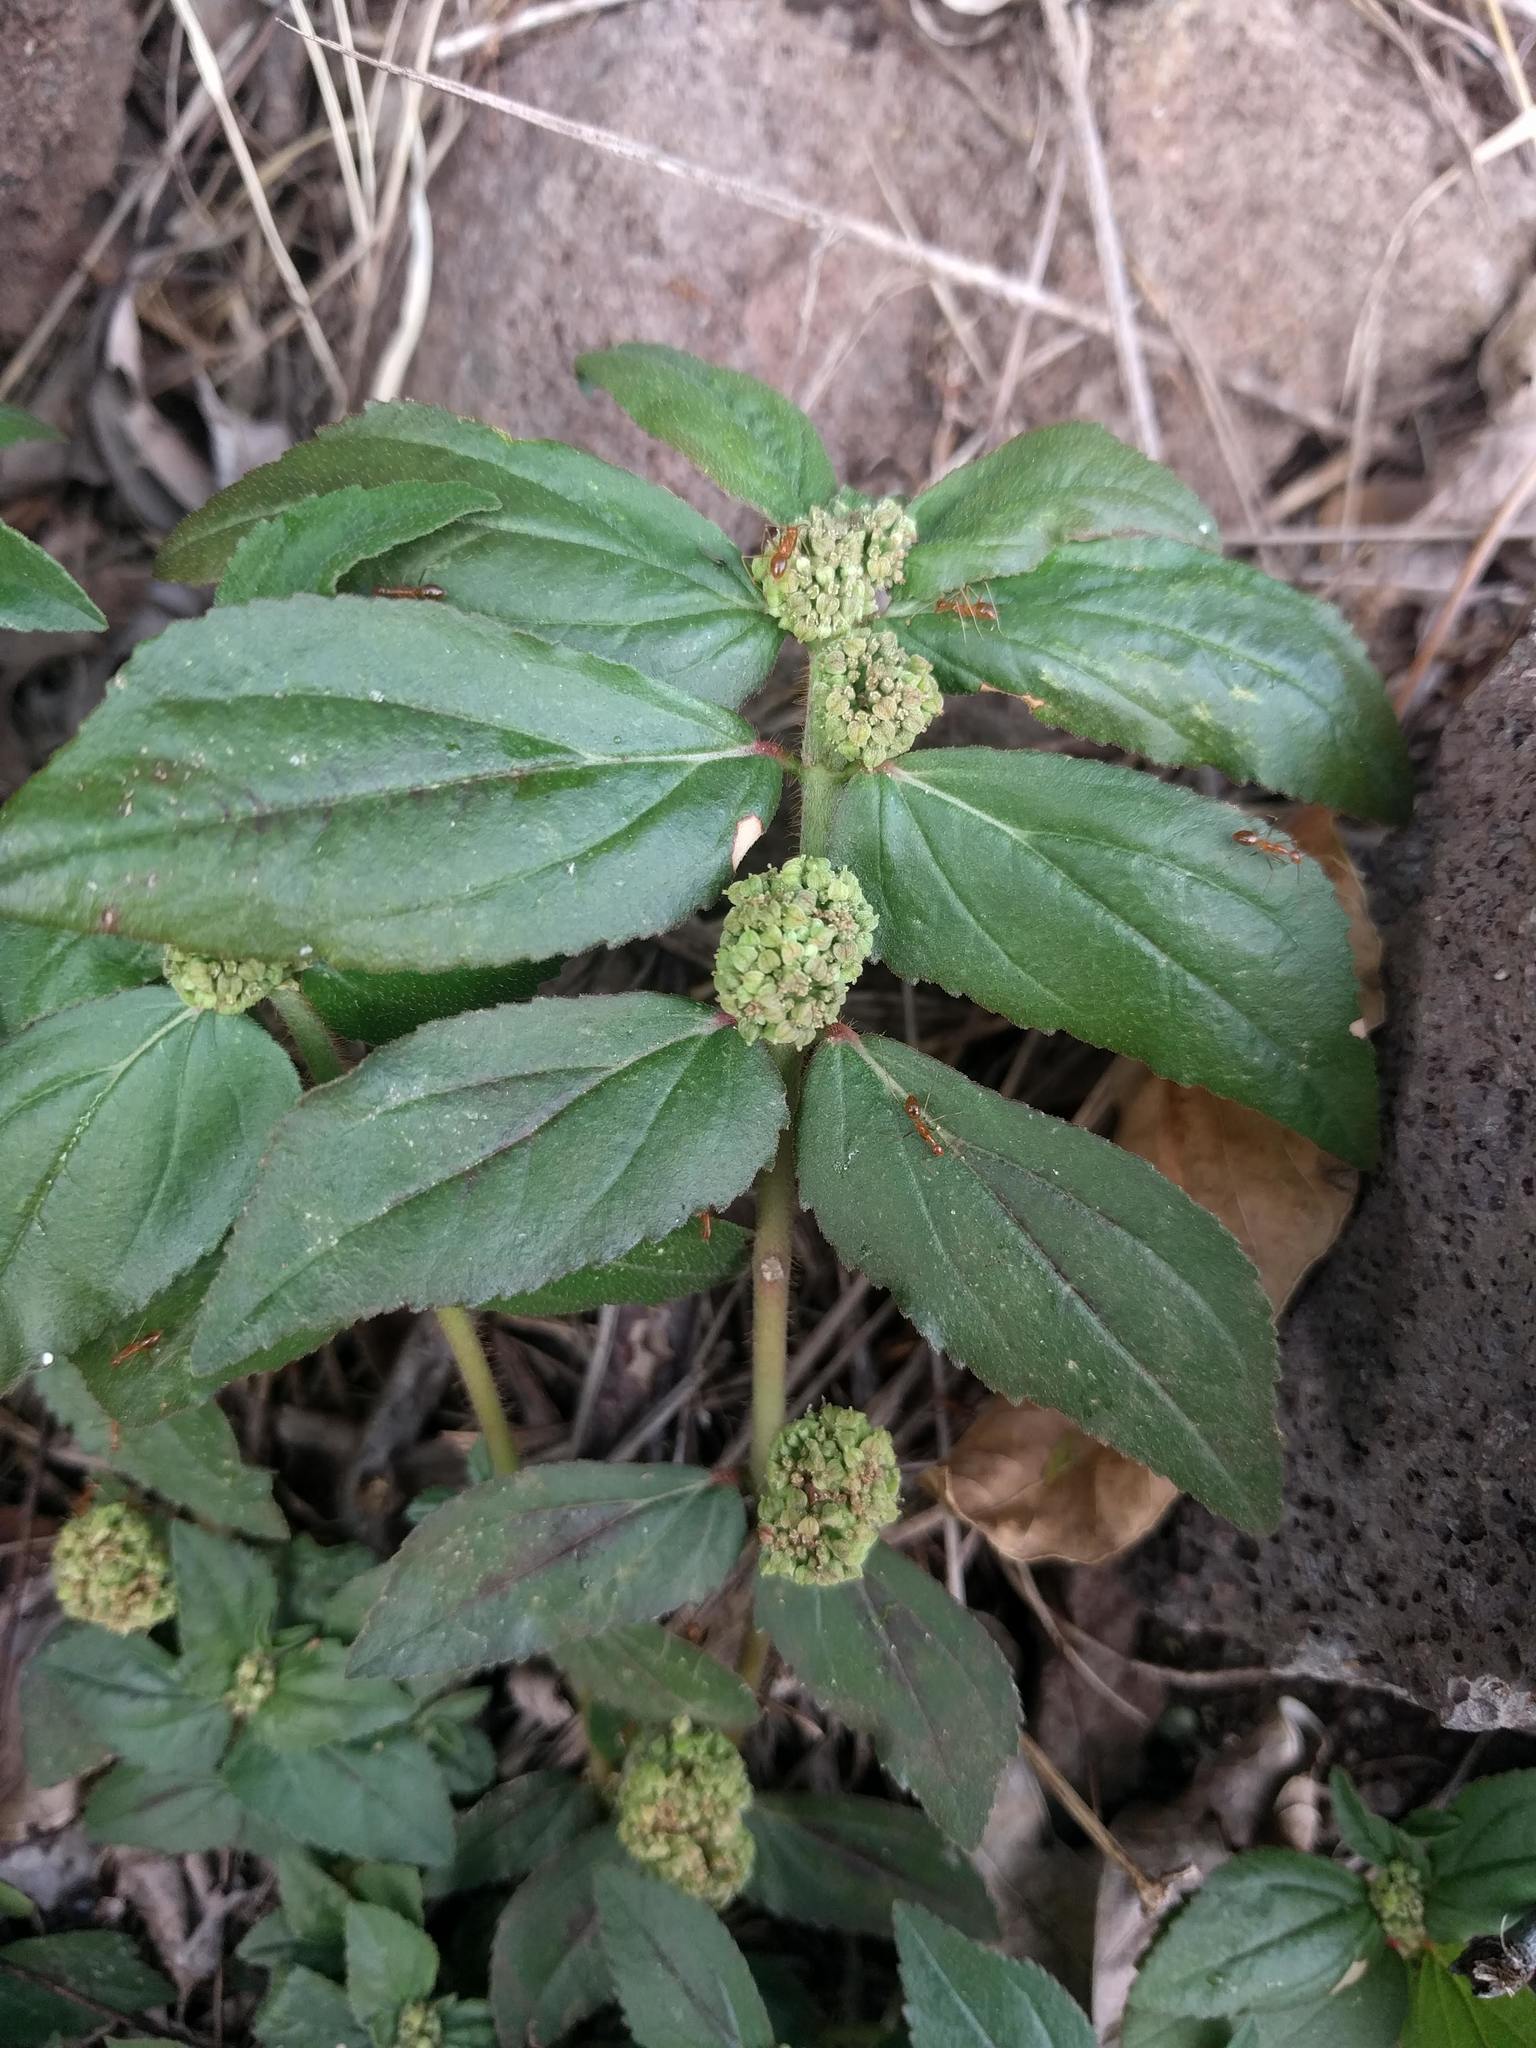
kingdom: Plantae
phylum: Tracheophyta
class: Magnoliopsida
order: Malpighiales
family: Euphorbiaceae
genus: Euphorbia
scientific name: Euphorbia hirta
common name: Pillpod sandmat
